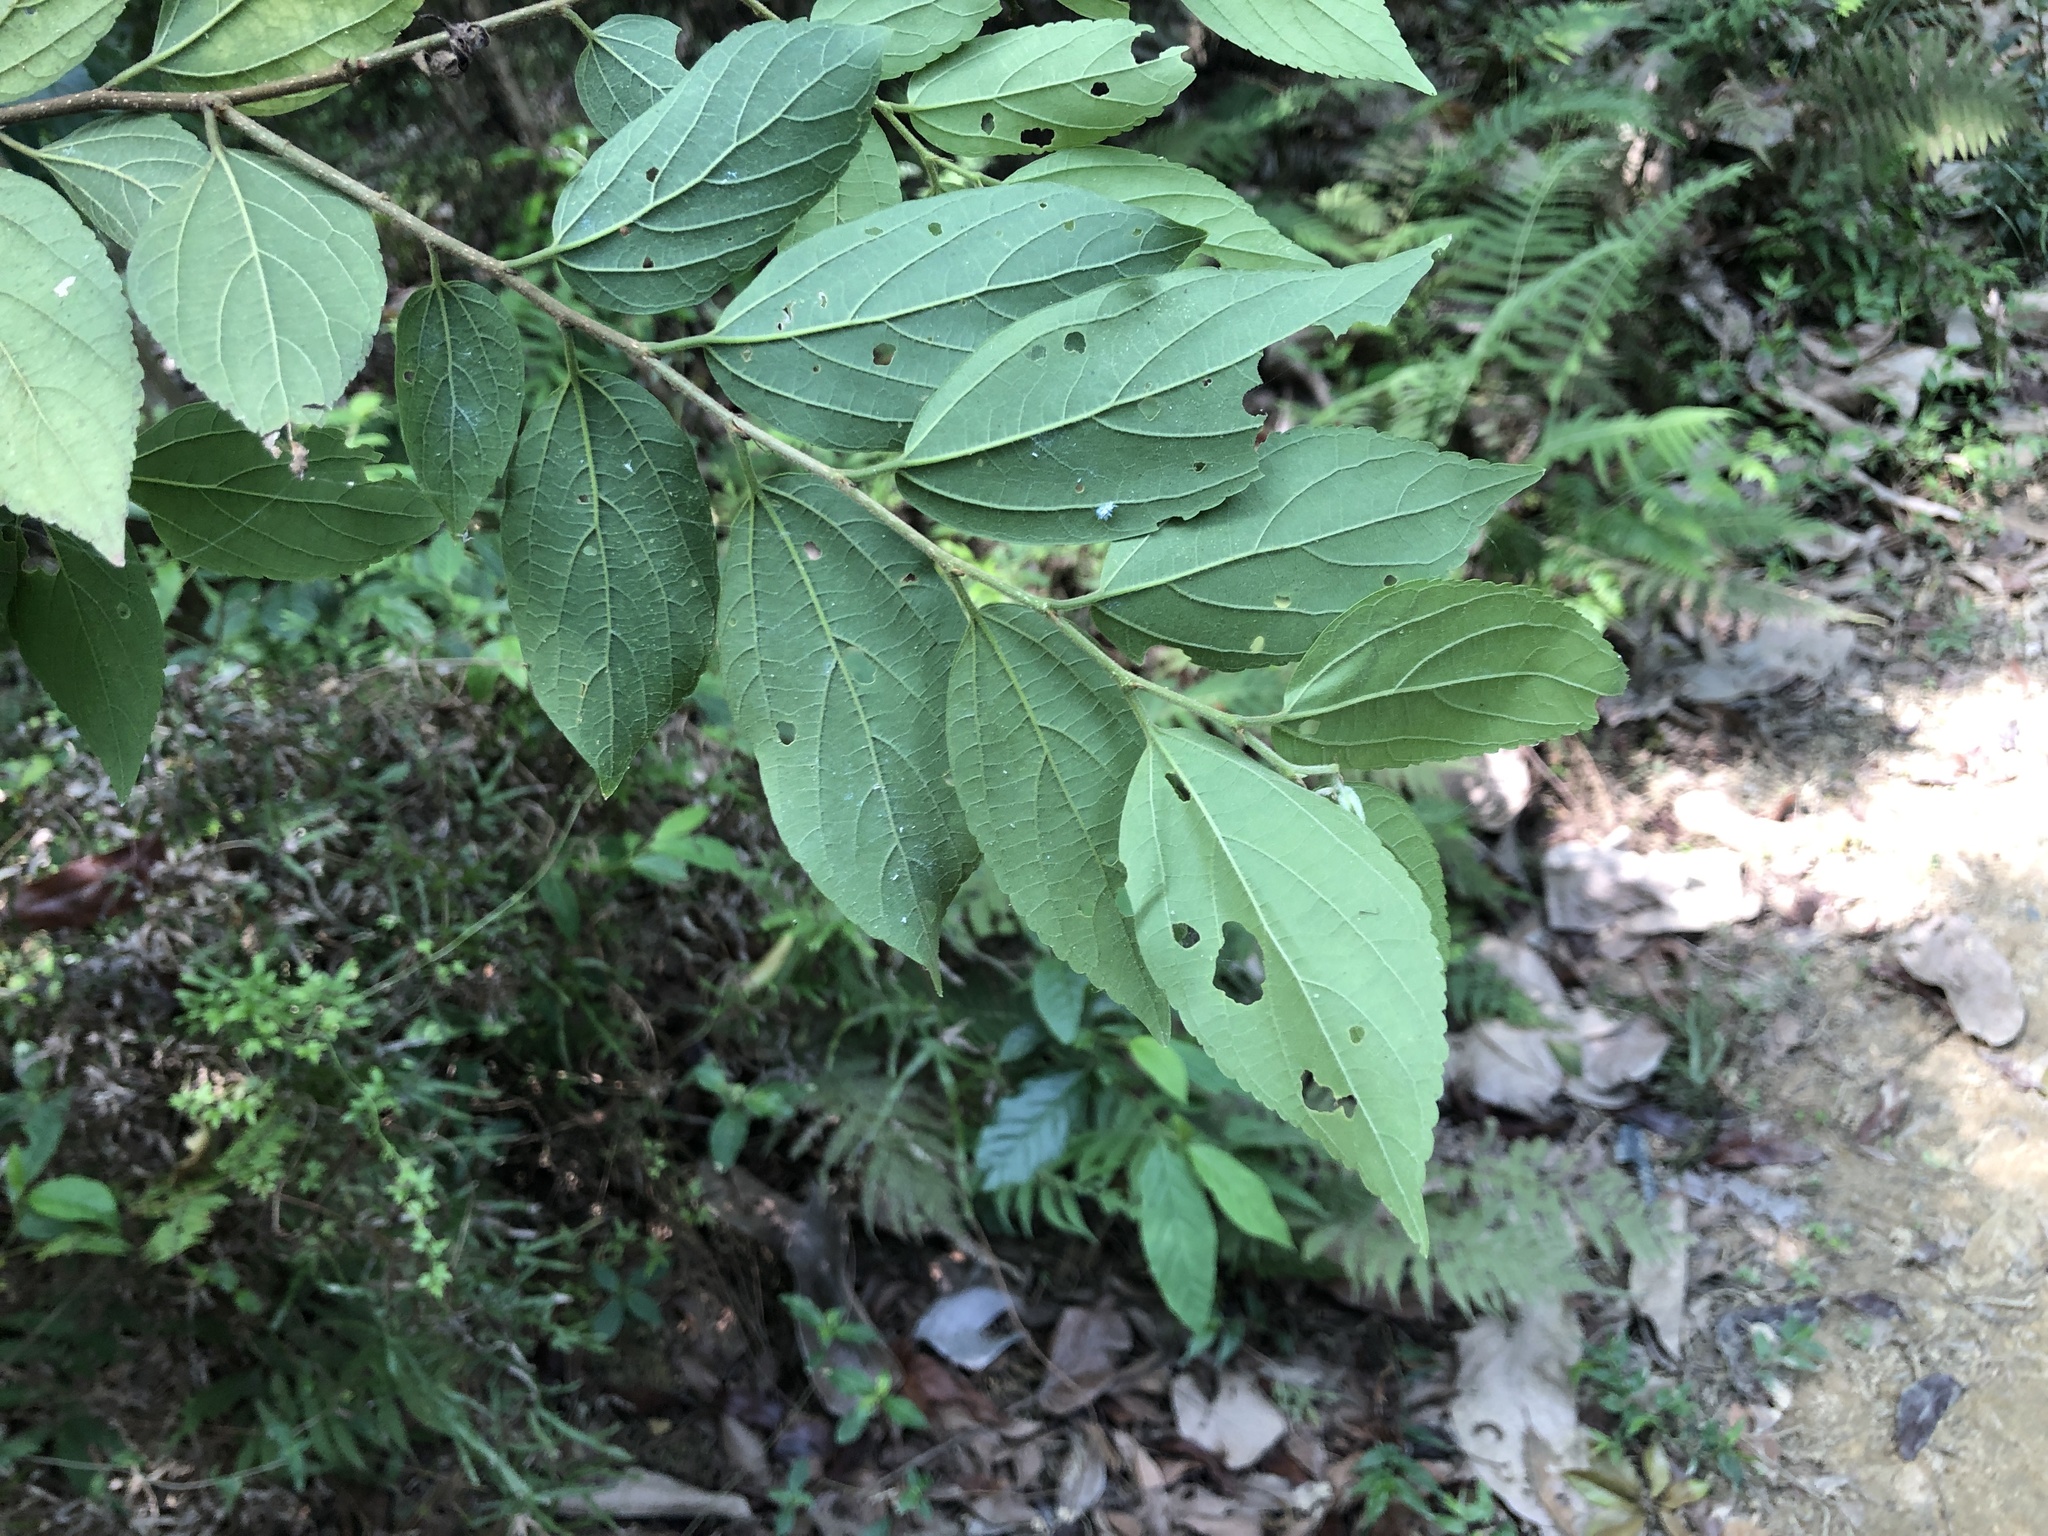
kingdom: Plantae
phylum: Tracheophyta
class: Magnoliopsida
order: Rosales
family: Cannabaceae
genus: Celtis
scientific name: Celtis sinensis
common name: Chinese hackberry
